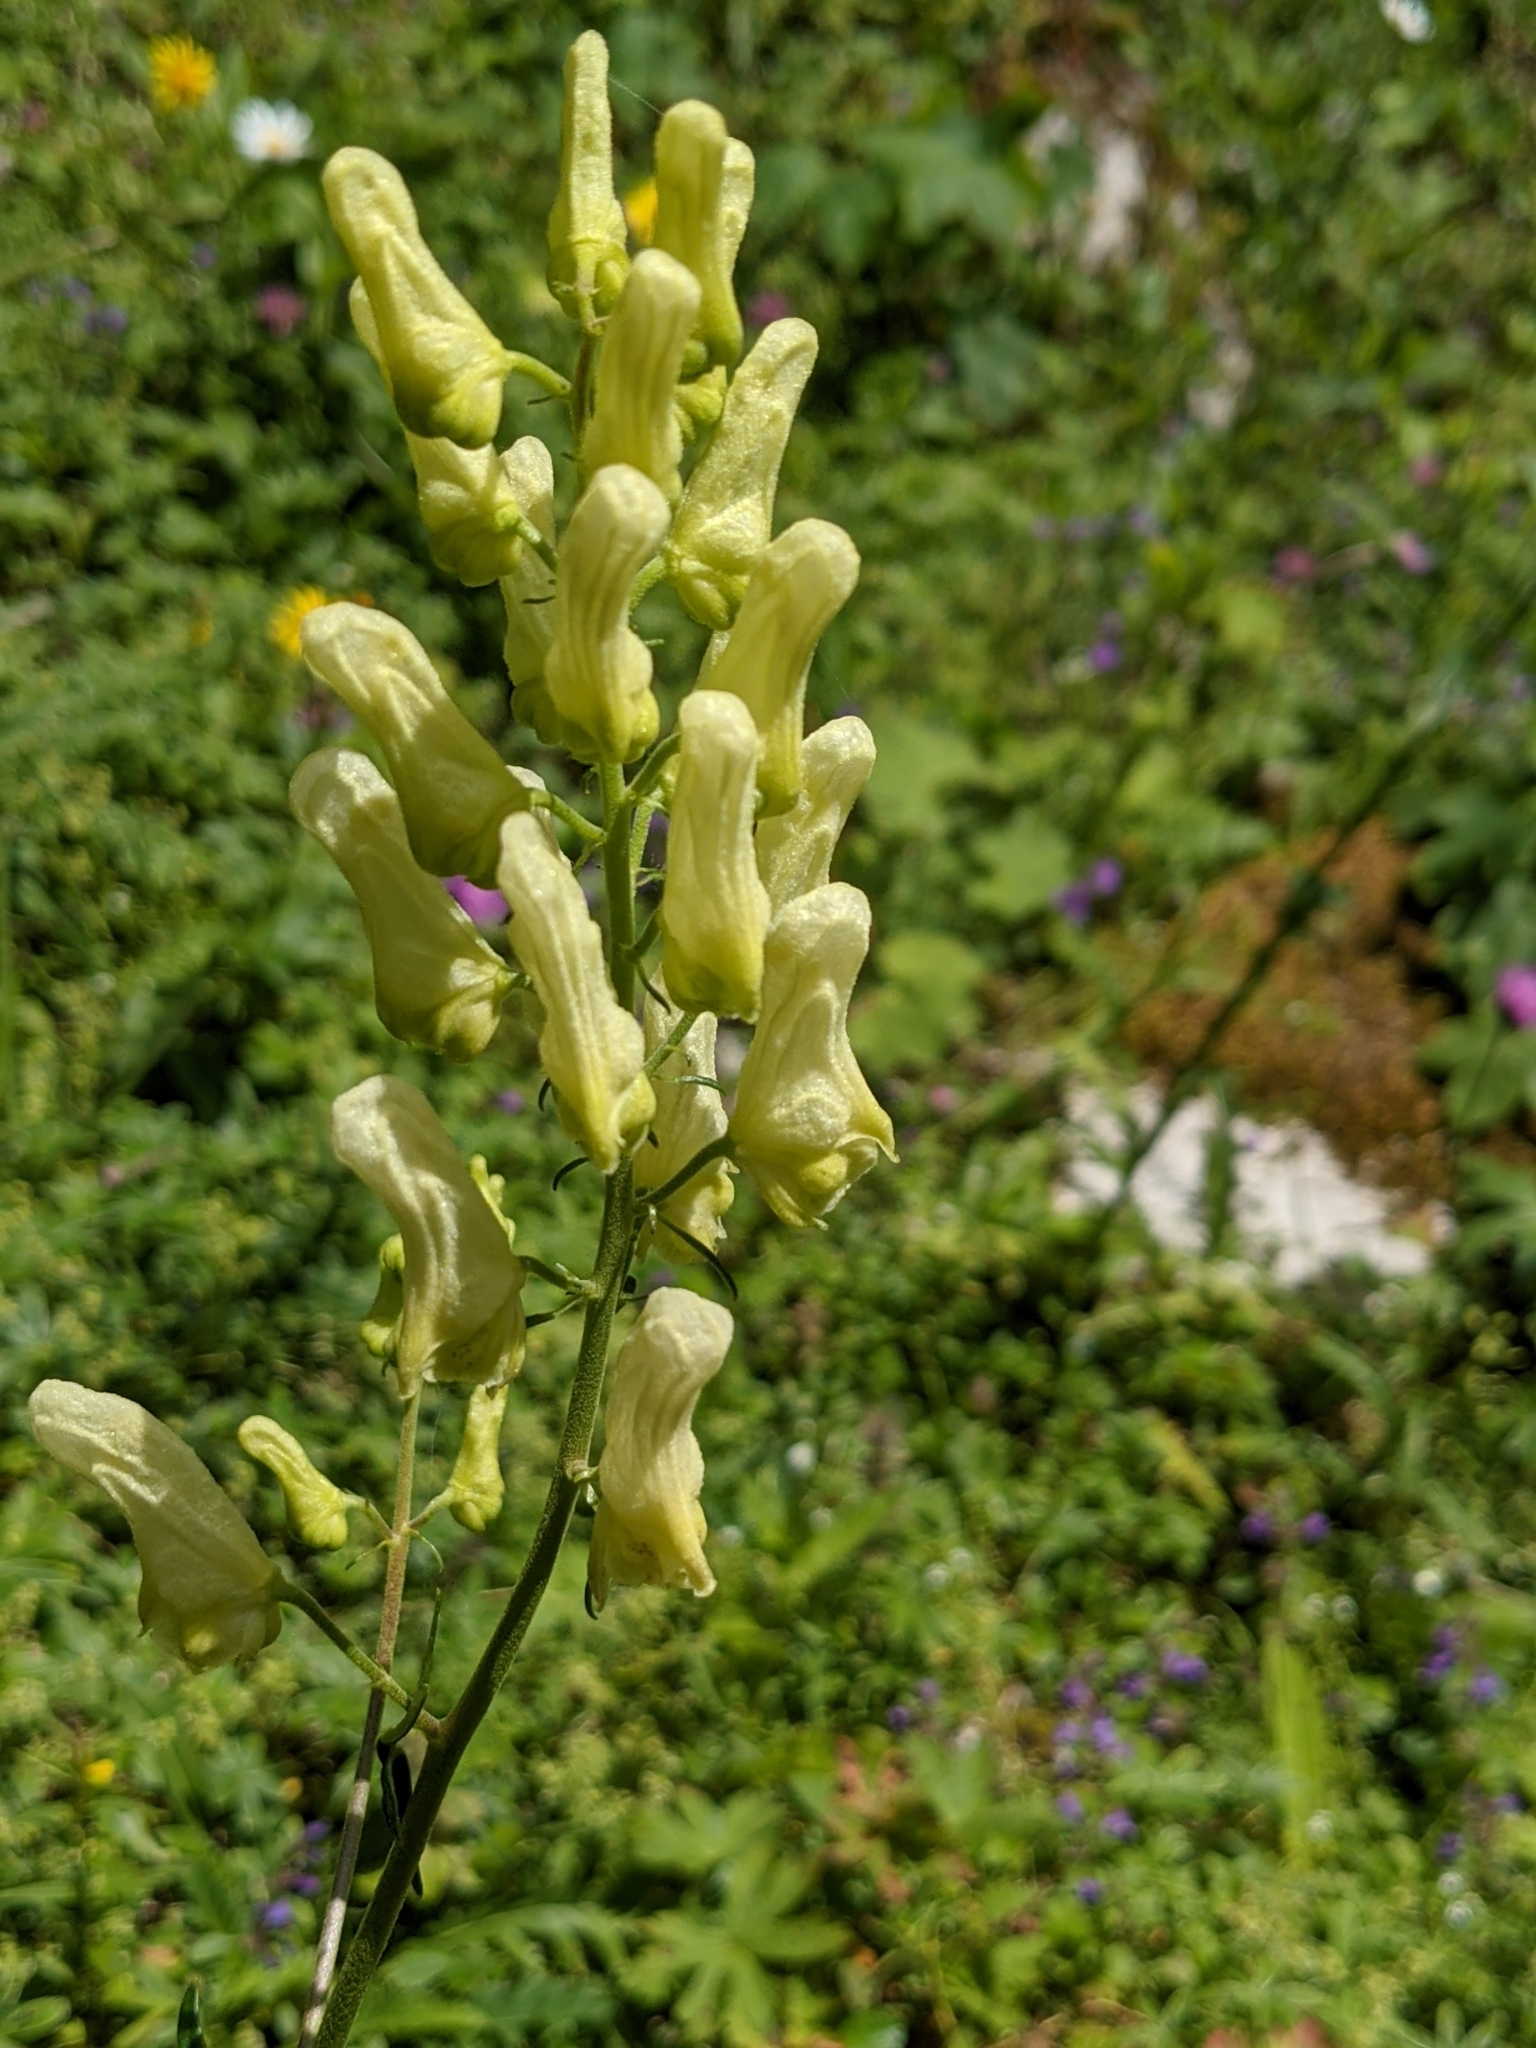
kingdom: Plantae
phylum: Tracheophyta
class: Magnoliopsida
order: Ranunculales
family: Ranunculaceae
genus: Aconitum
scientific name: Aconitum lycoctonum
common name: Wolf's-bane
